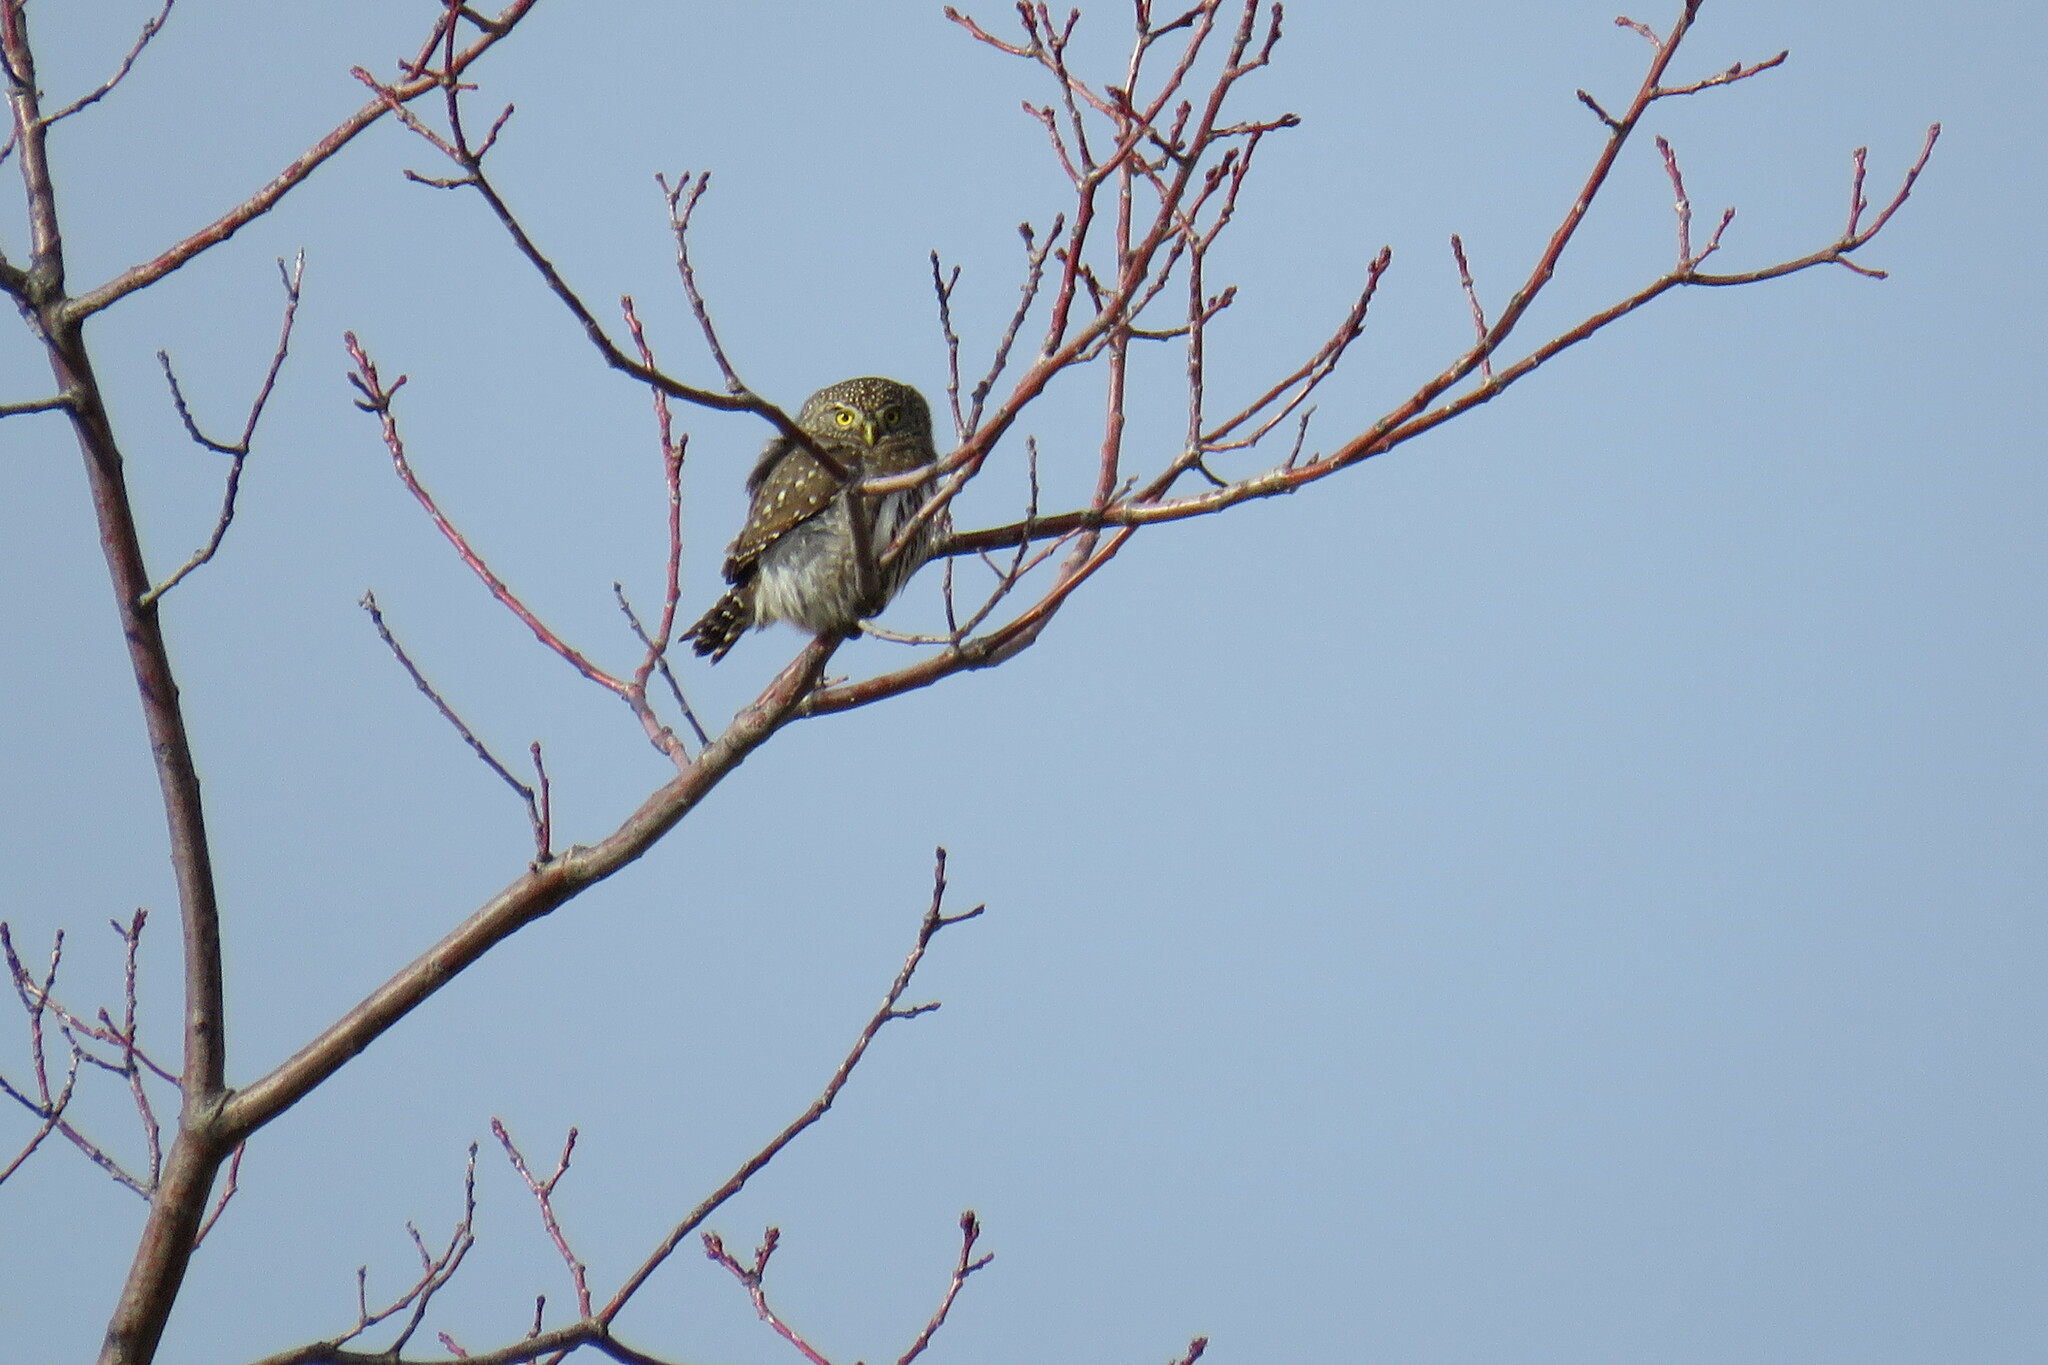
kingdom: Animalia
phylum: Chordata
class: Aves
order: Strigiformes
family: Strigidae
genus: Glaucidium
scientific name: Glaucidium gnoma
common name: Northern pygmy-owl
